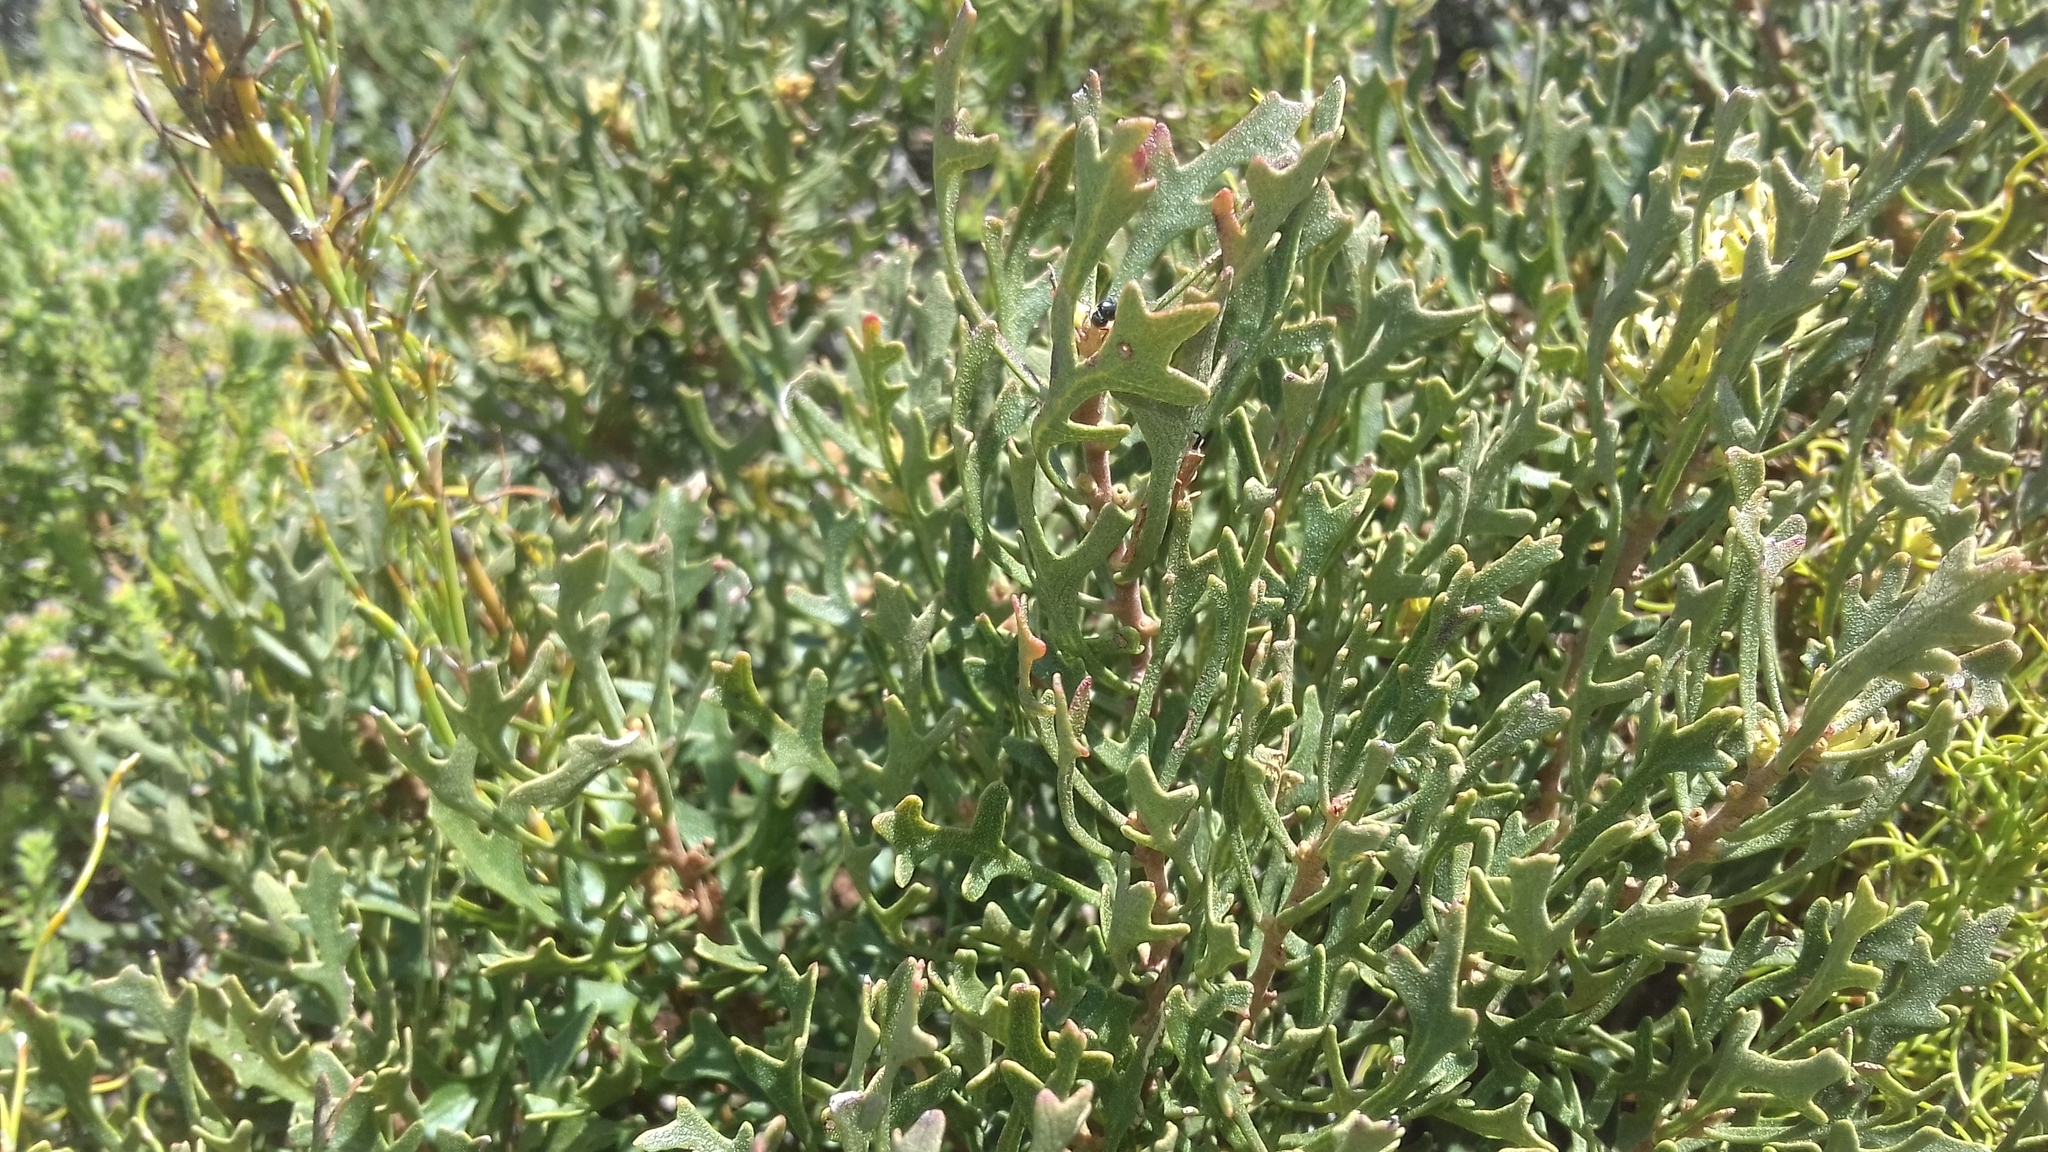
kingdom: Plantae
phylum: Tracheophyta
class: Magnoliopsida
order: Fagales
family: Myricaceae
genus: Morella
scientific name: Morella quercifolia
